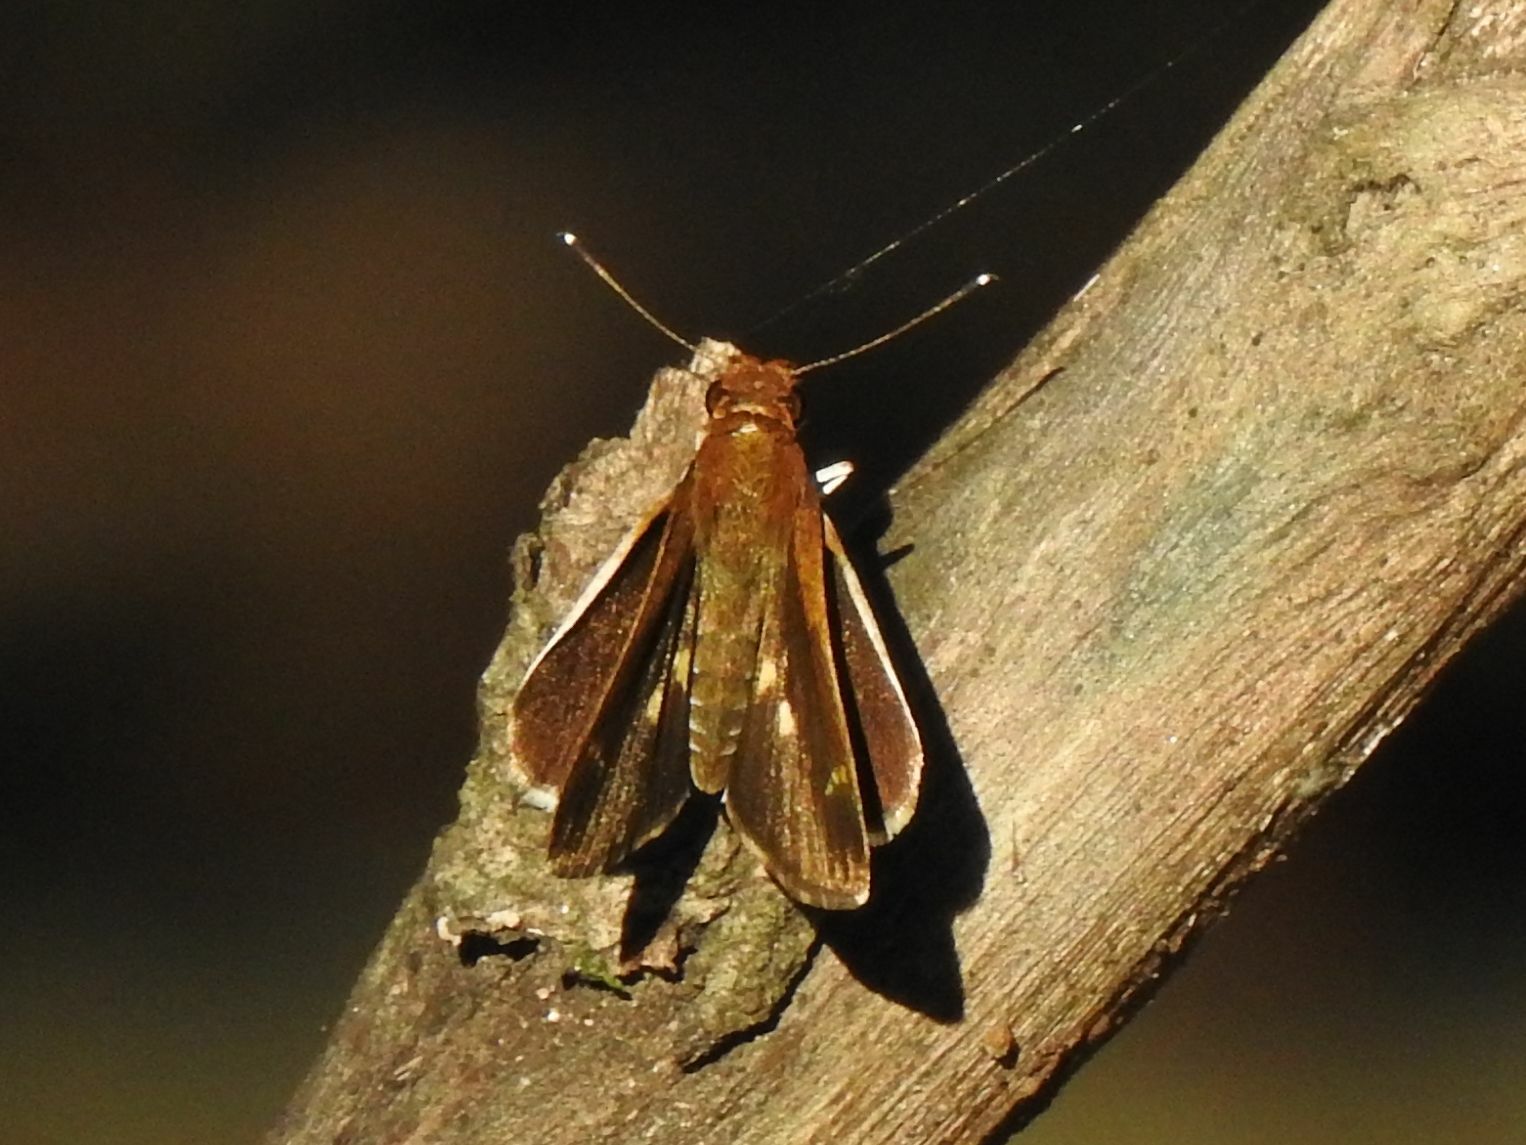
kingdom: Animalia
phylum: Arthropoda
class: Insecta
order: Lepidoptera
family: Hesperiidae
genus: Acleros
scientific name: Acleros mackenii
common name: Shade dart
